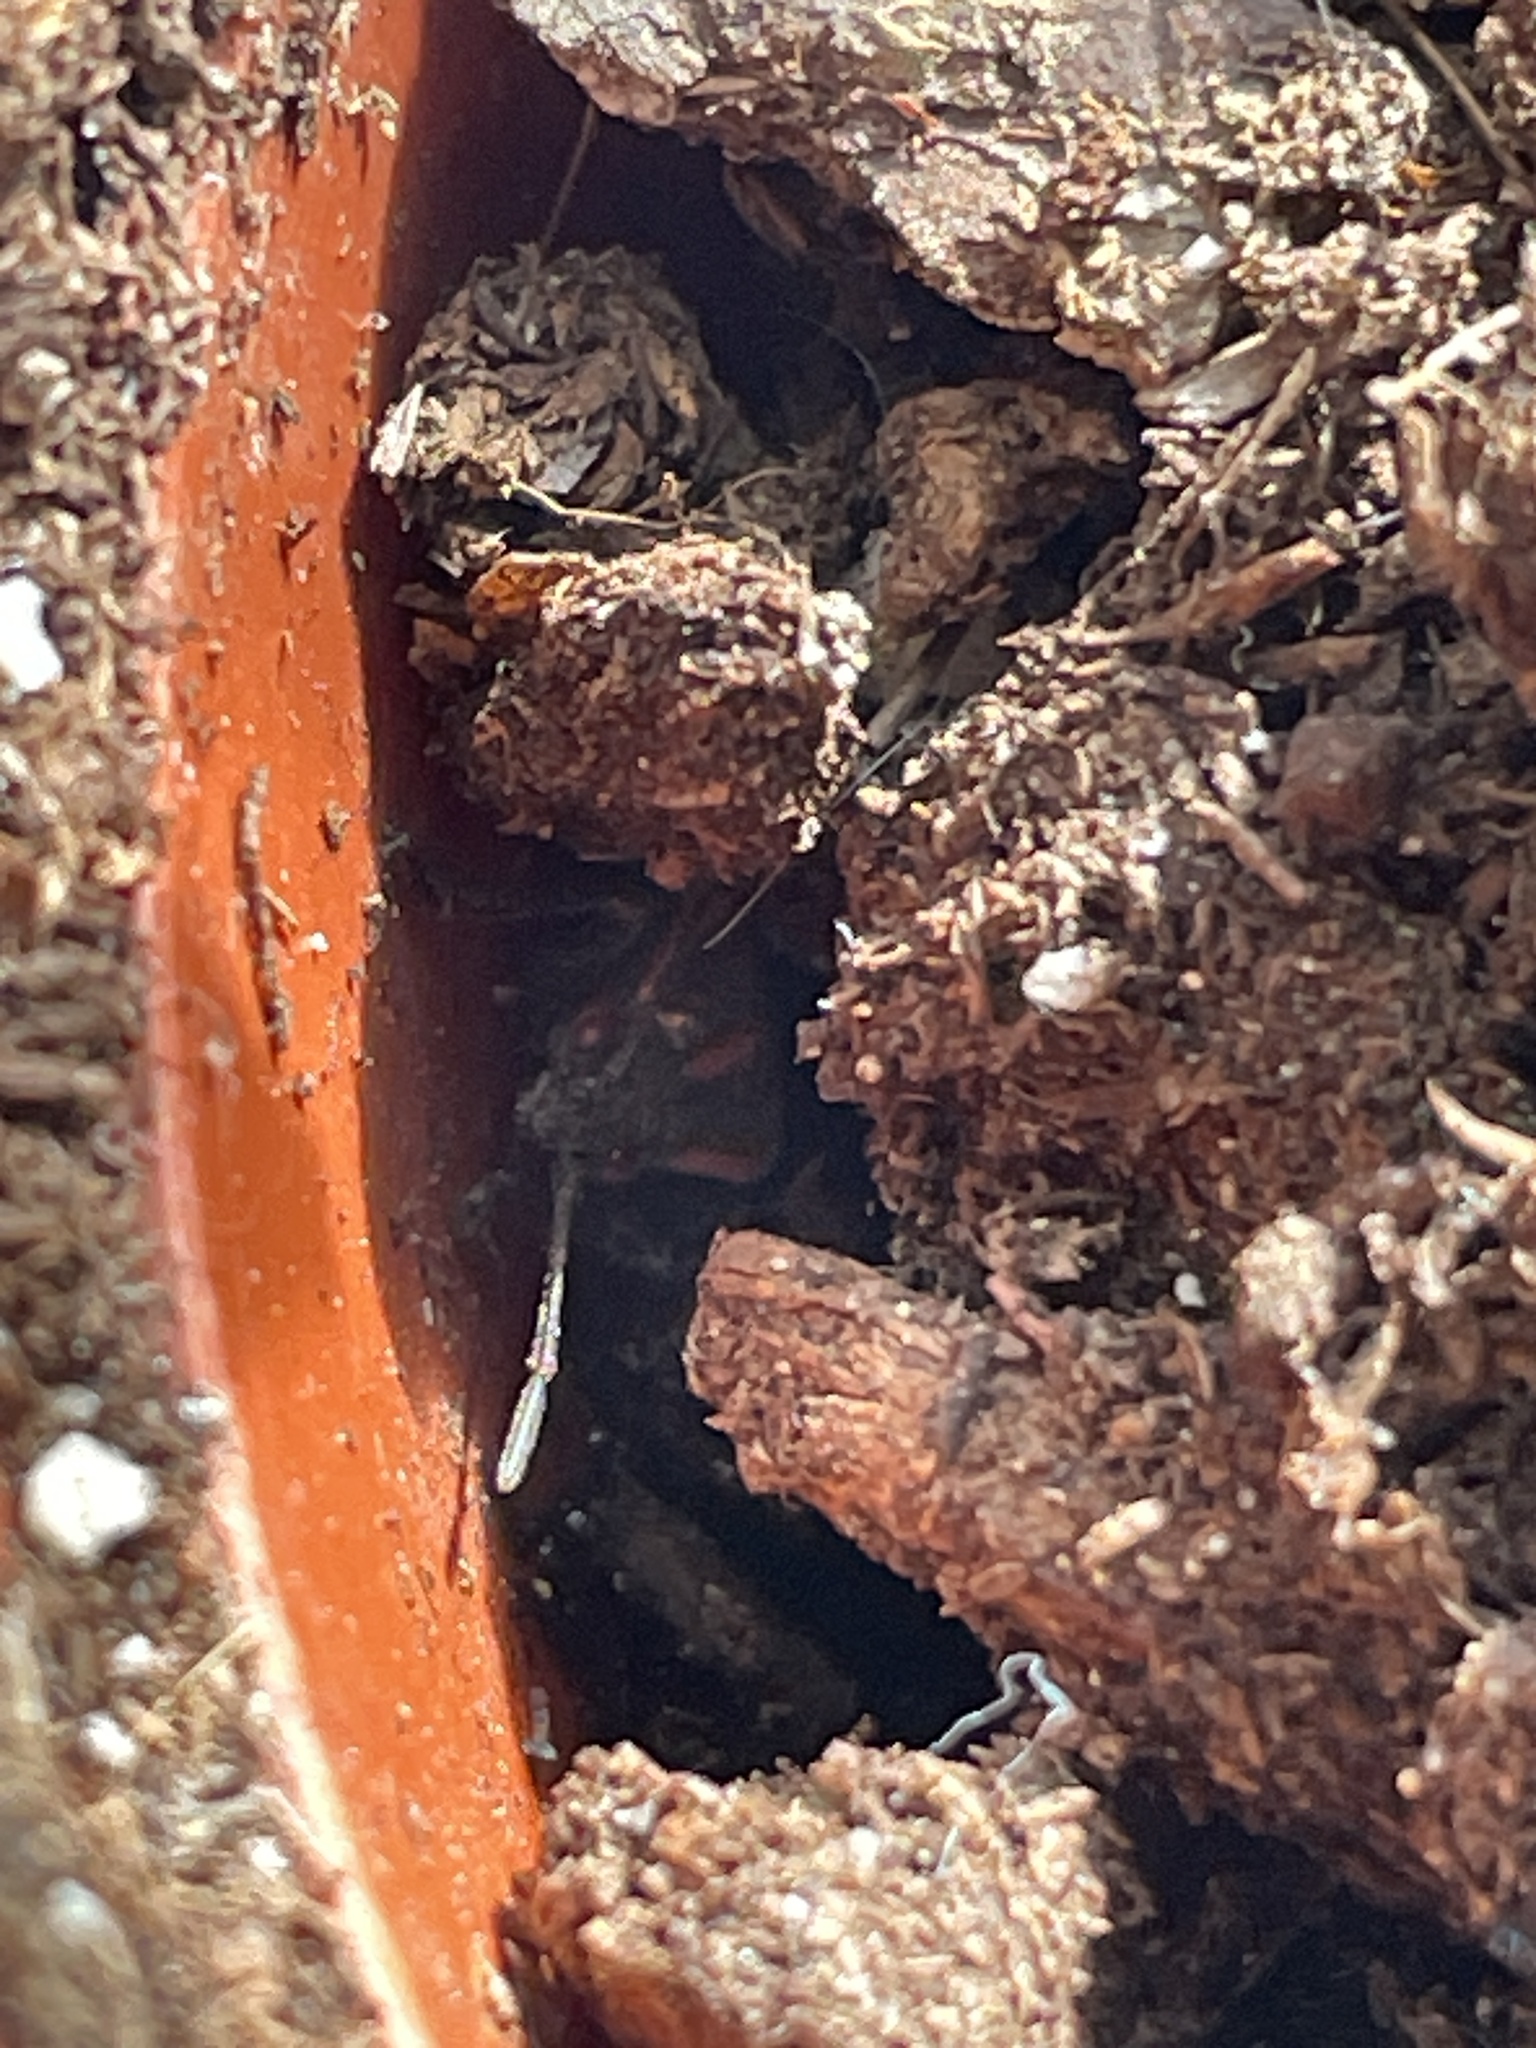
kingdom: Animalia
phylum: Arthropoda
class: Insecta
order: Hemiptera
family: Rhopalidae
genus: Boisea
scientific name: Boisea trivittata
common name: Boxelder bug
